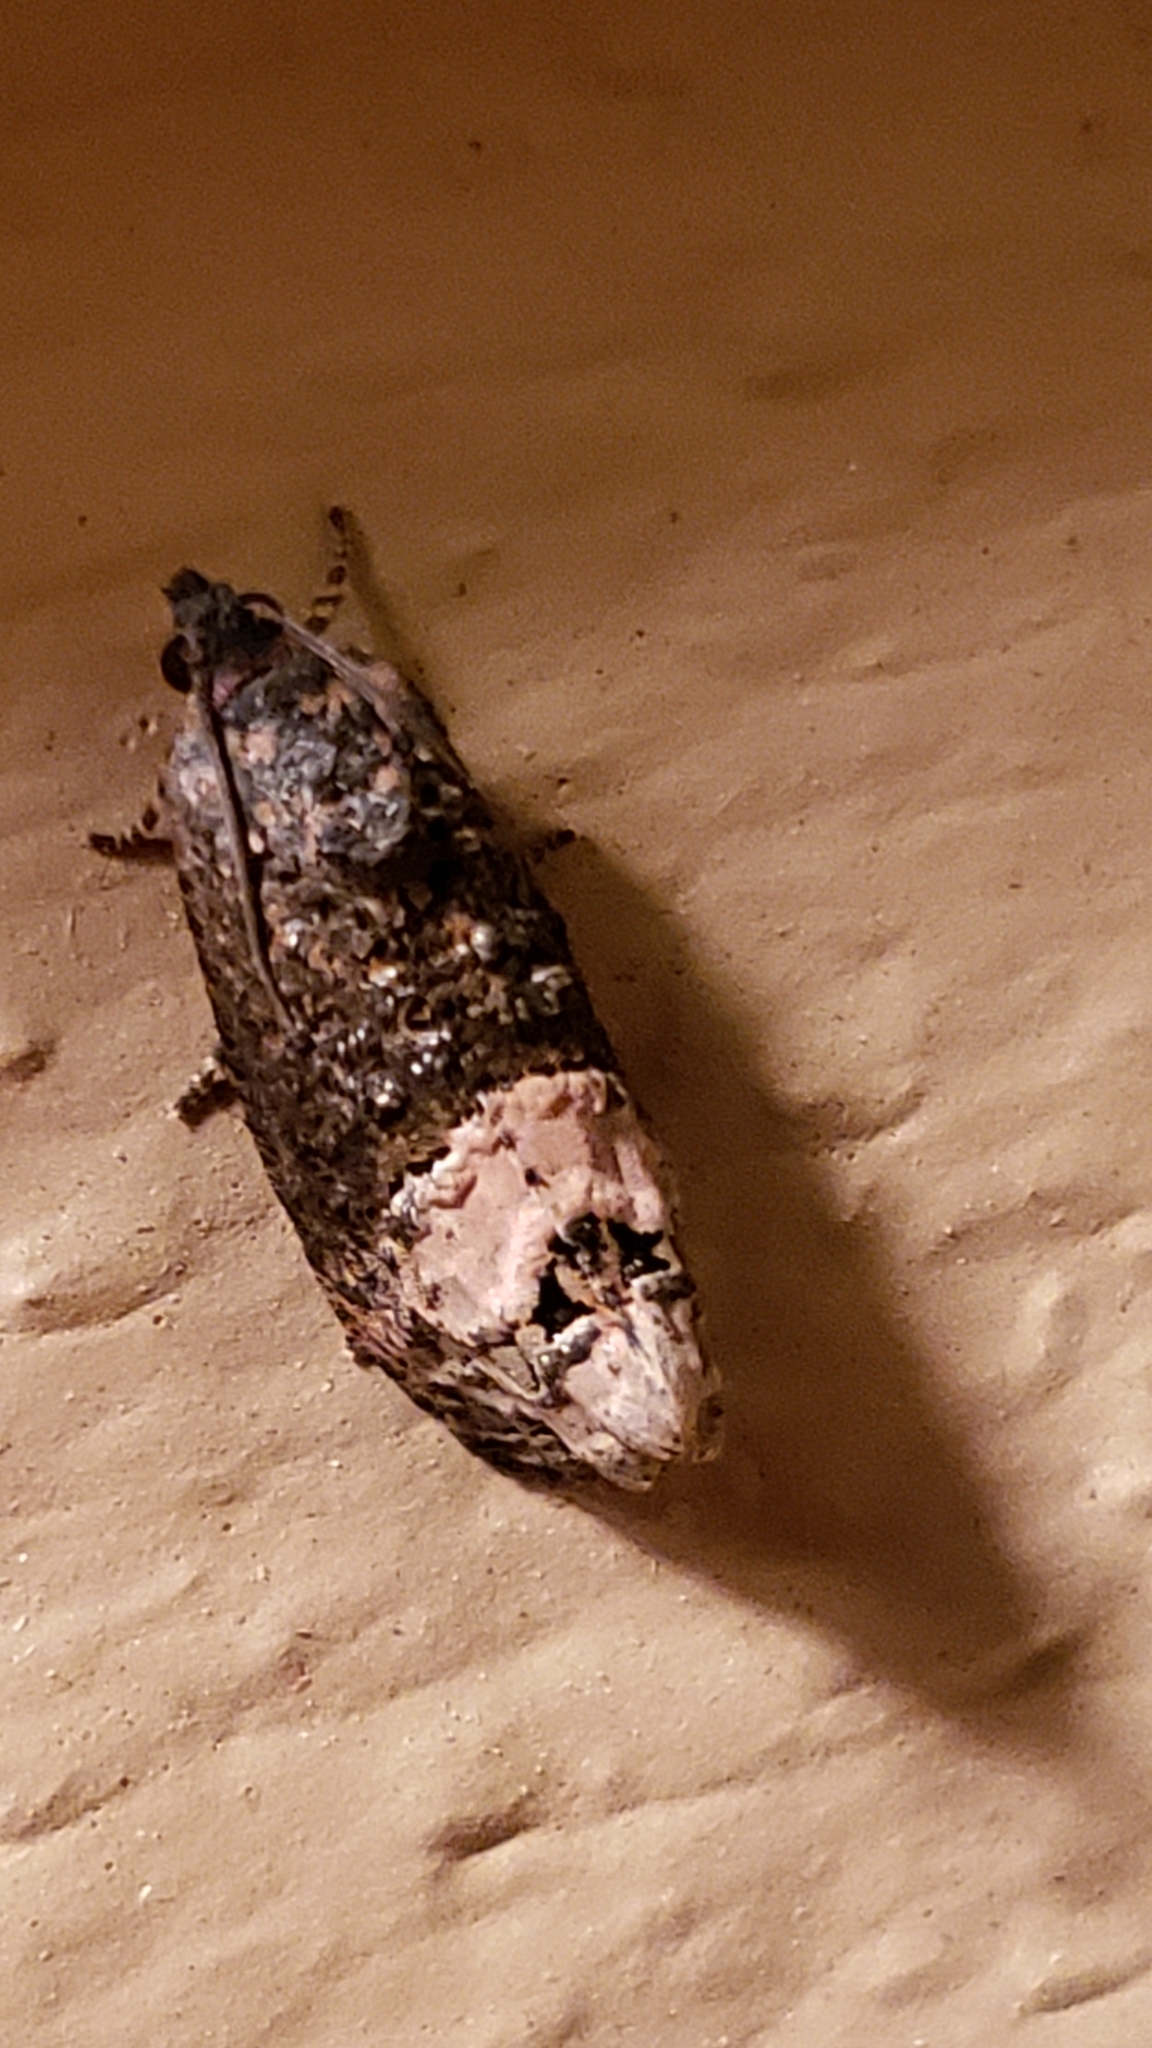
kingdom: Animalia
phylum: Arthropoda
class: Insecta
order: Lepidoptera
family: Tortricidae
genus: Ecdytolopha
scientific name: Ecdytolopha insiticiana
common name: Locust twig borer moth
